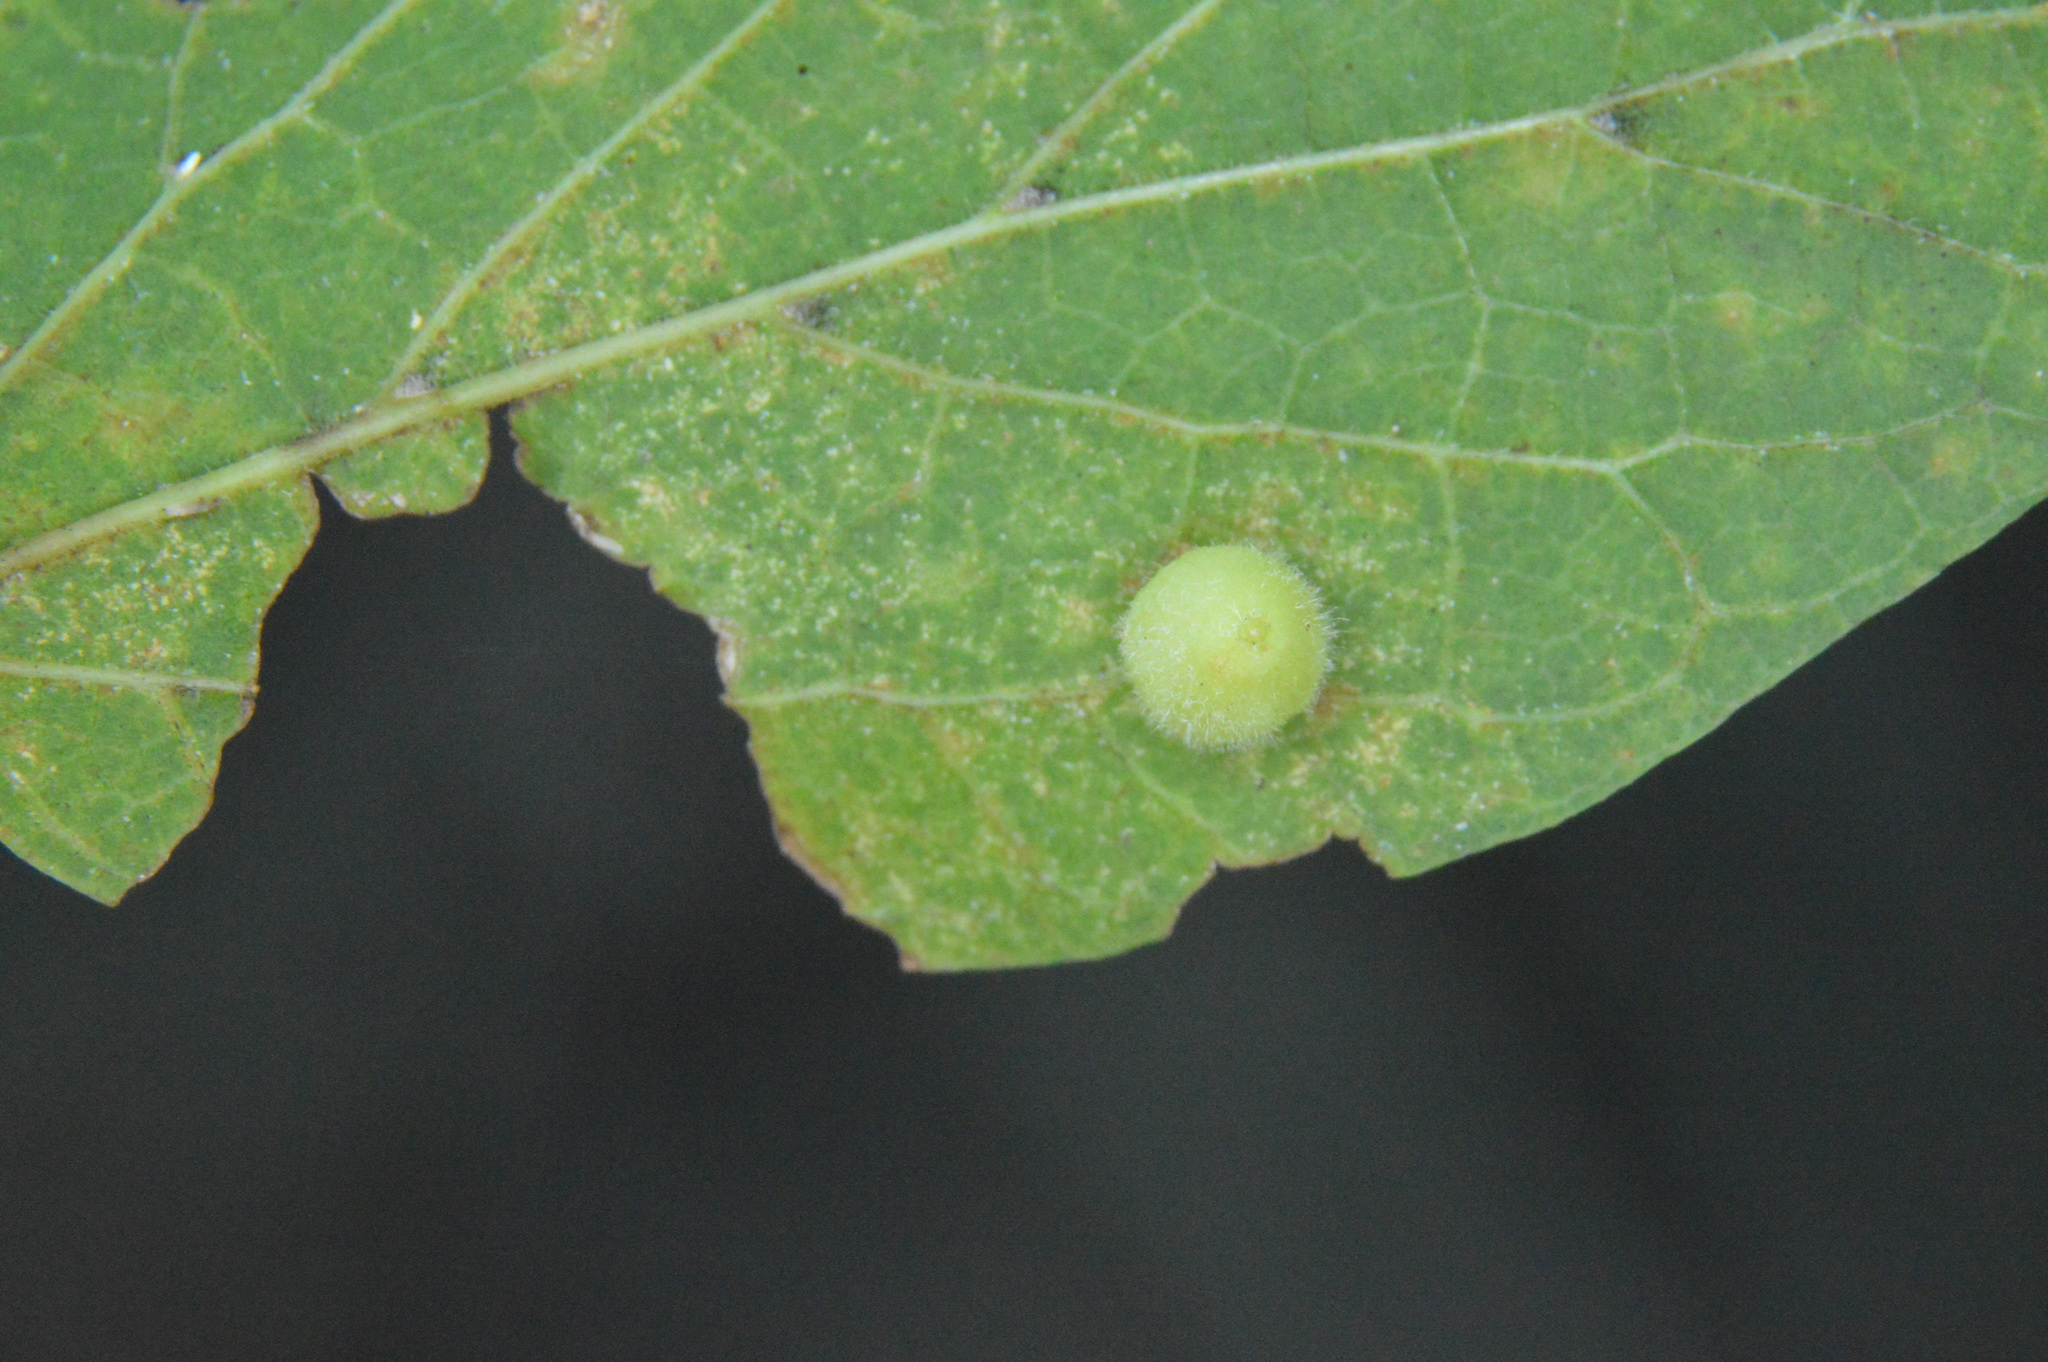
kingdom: Animalia
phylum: Arthropoda
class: Insecta
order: Diptera
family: Cecidomyiidae
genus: Celticecis
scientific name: Celticecis globosa
